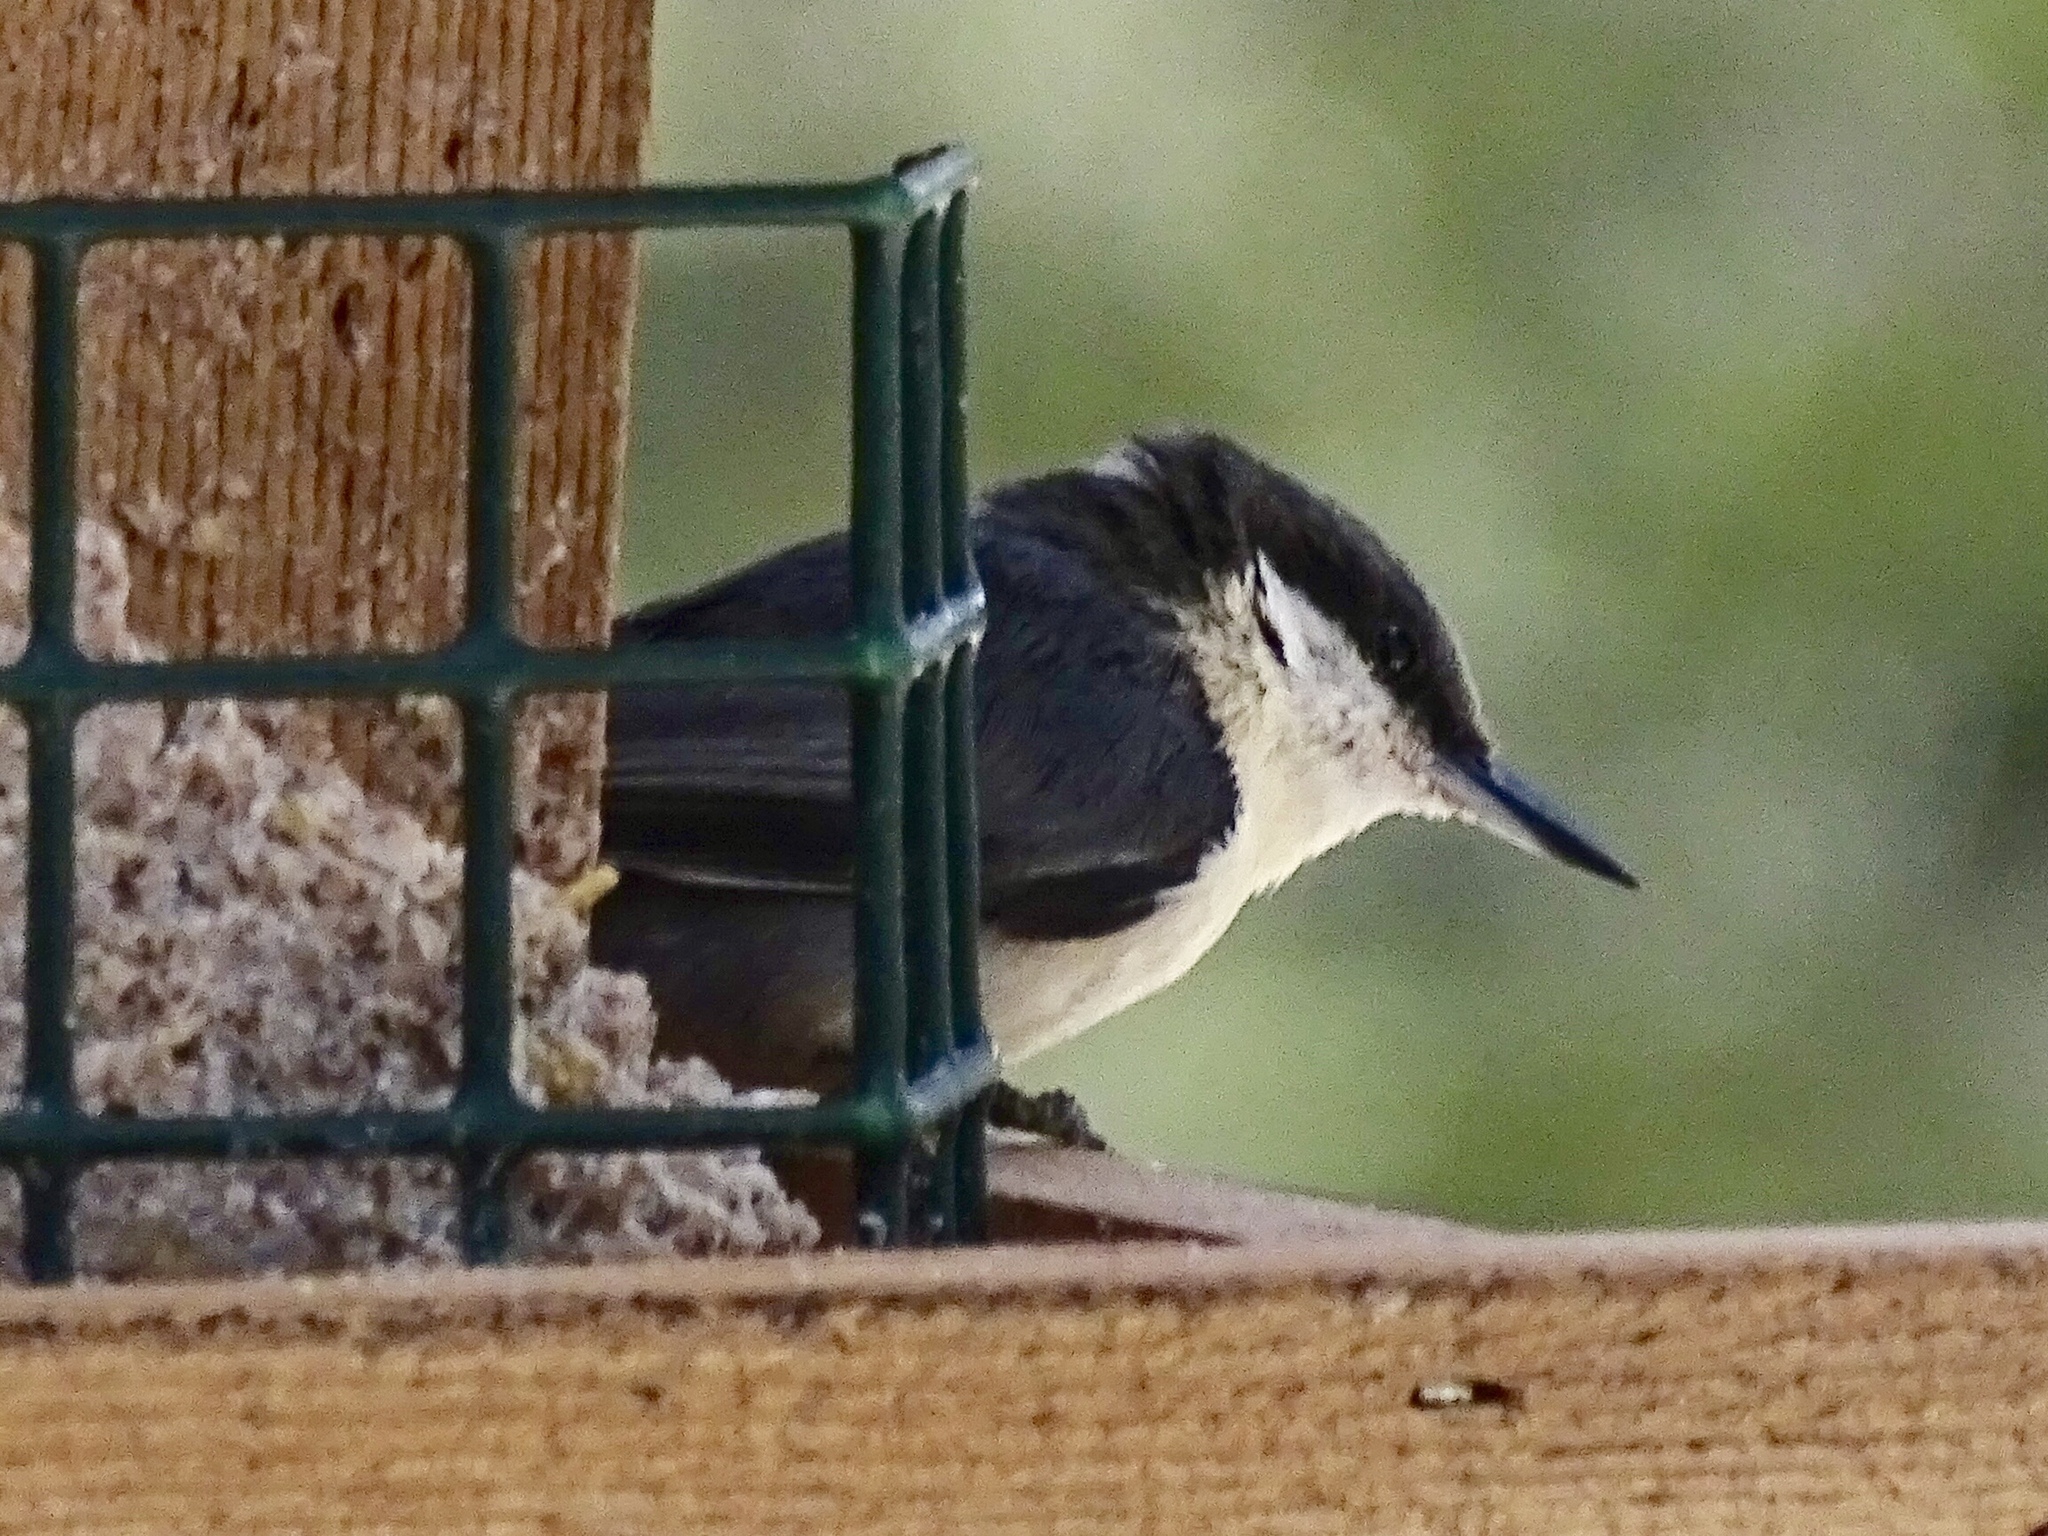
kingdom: Animalia
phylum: Chordata
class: Aves
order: Passeriformes
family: Sittidae
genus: Sitta
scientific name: Sitta pygmaea
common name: Pygmy nuthatch
